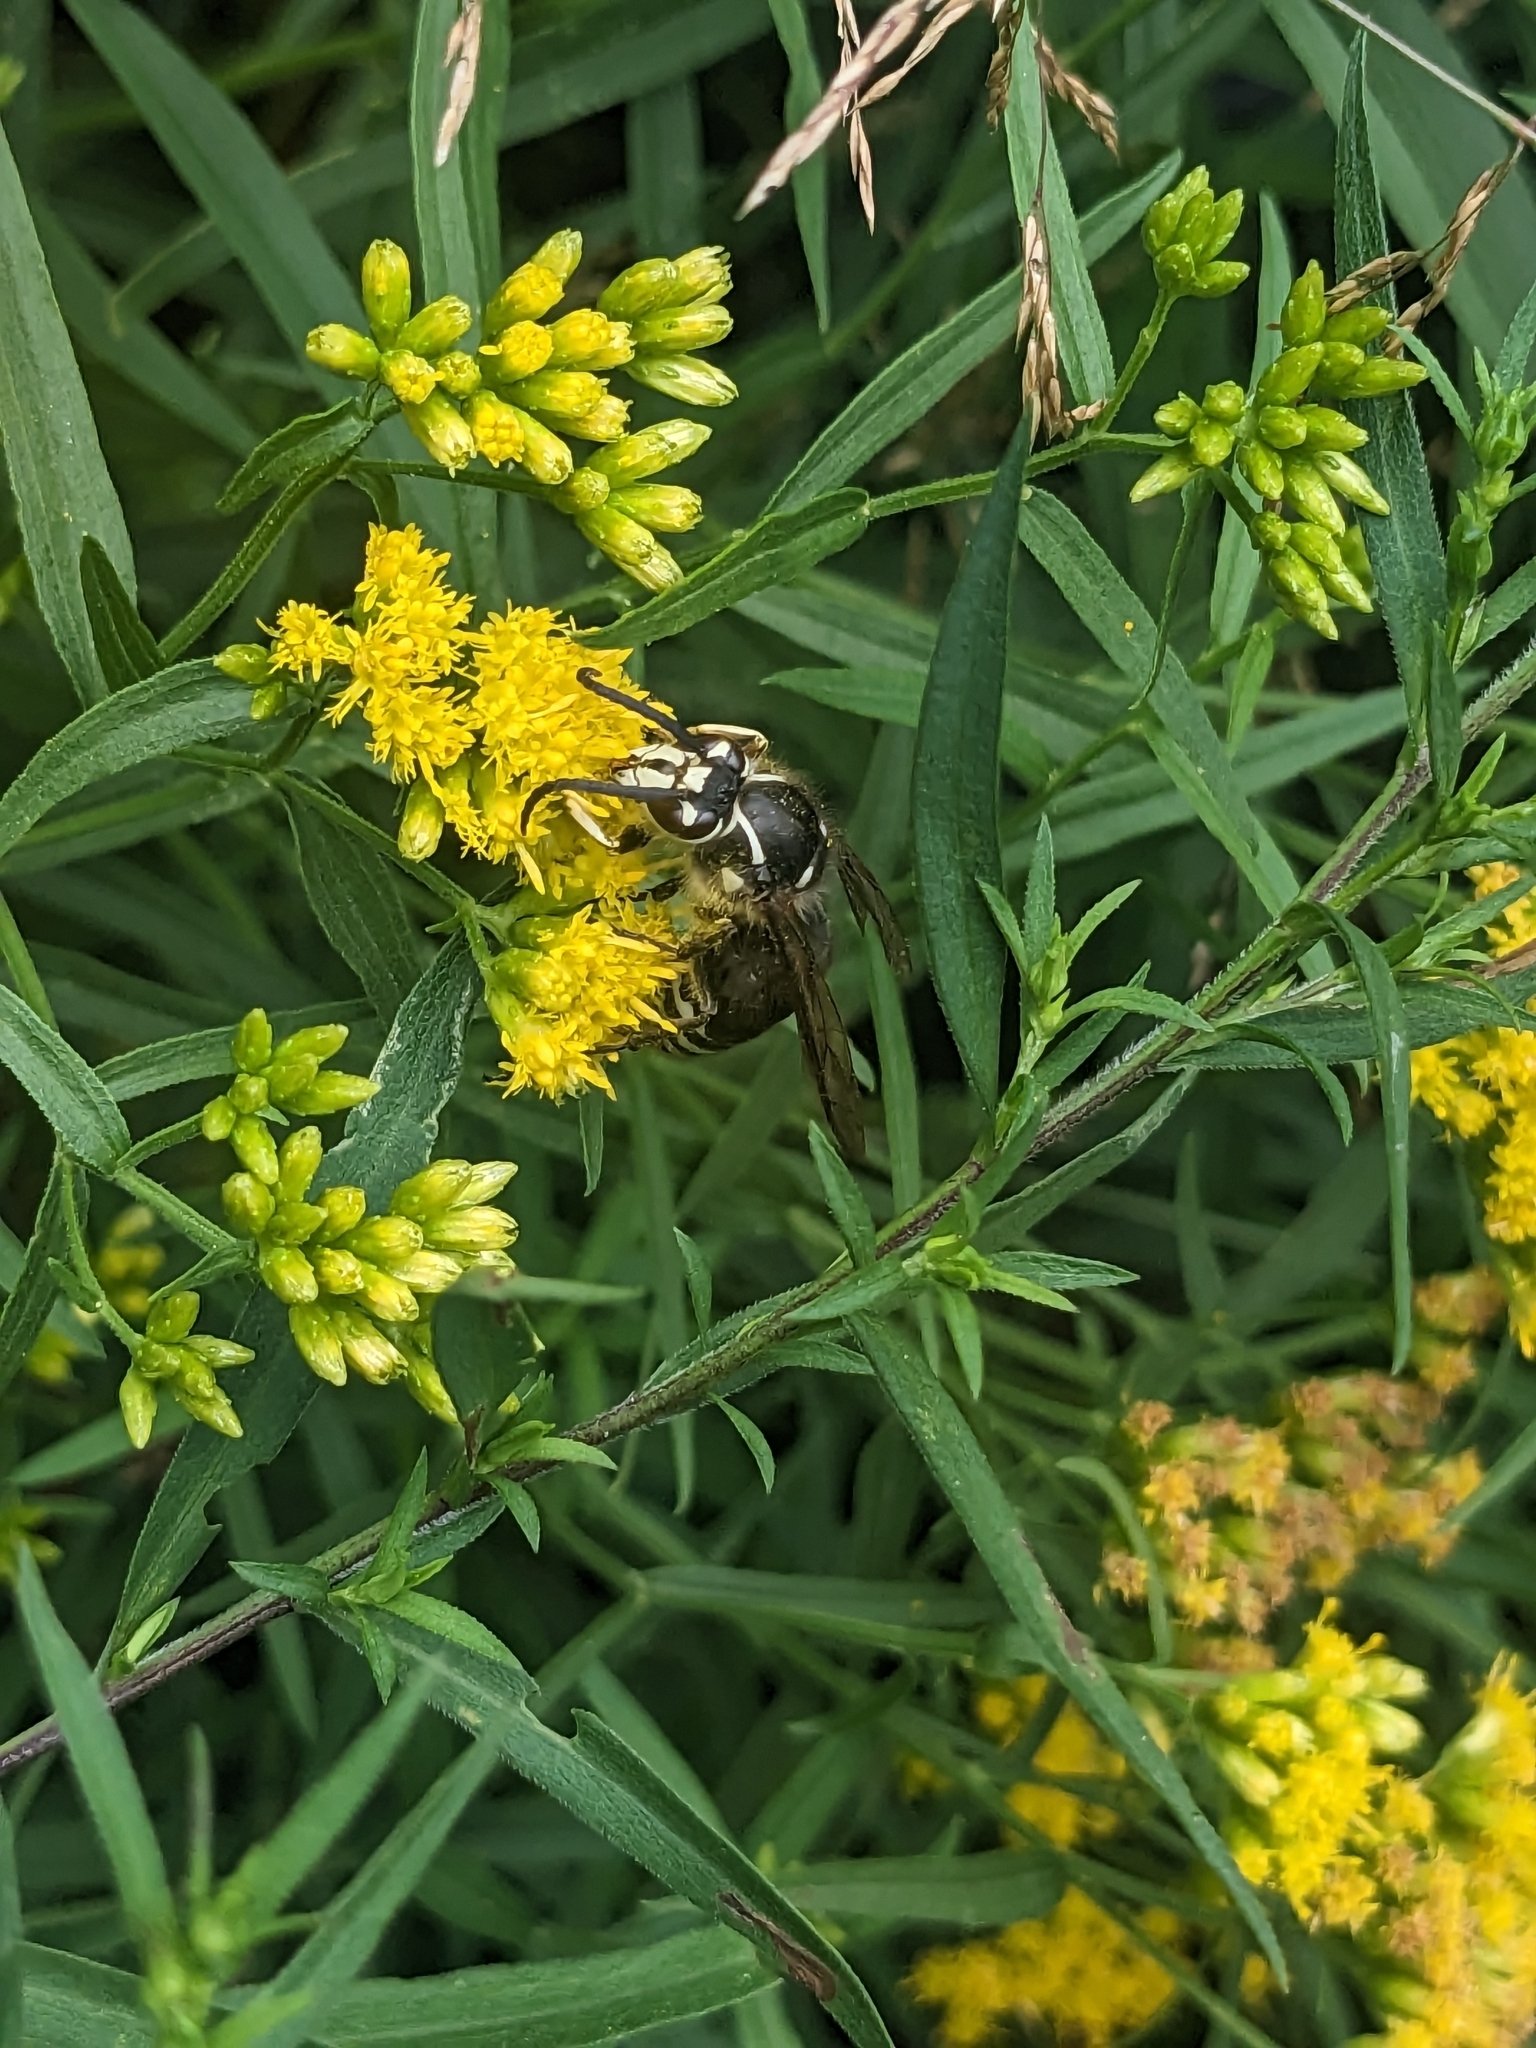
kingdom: Animalia
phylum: Arthropoda
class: Insecta
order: Hymenoptera
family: Vespidae
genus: Dolichovespula
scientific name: Dolichovespula maculata
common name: Bald-faced hornet
